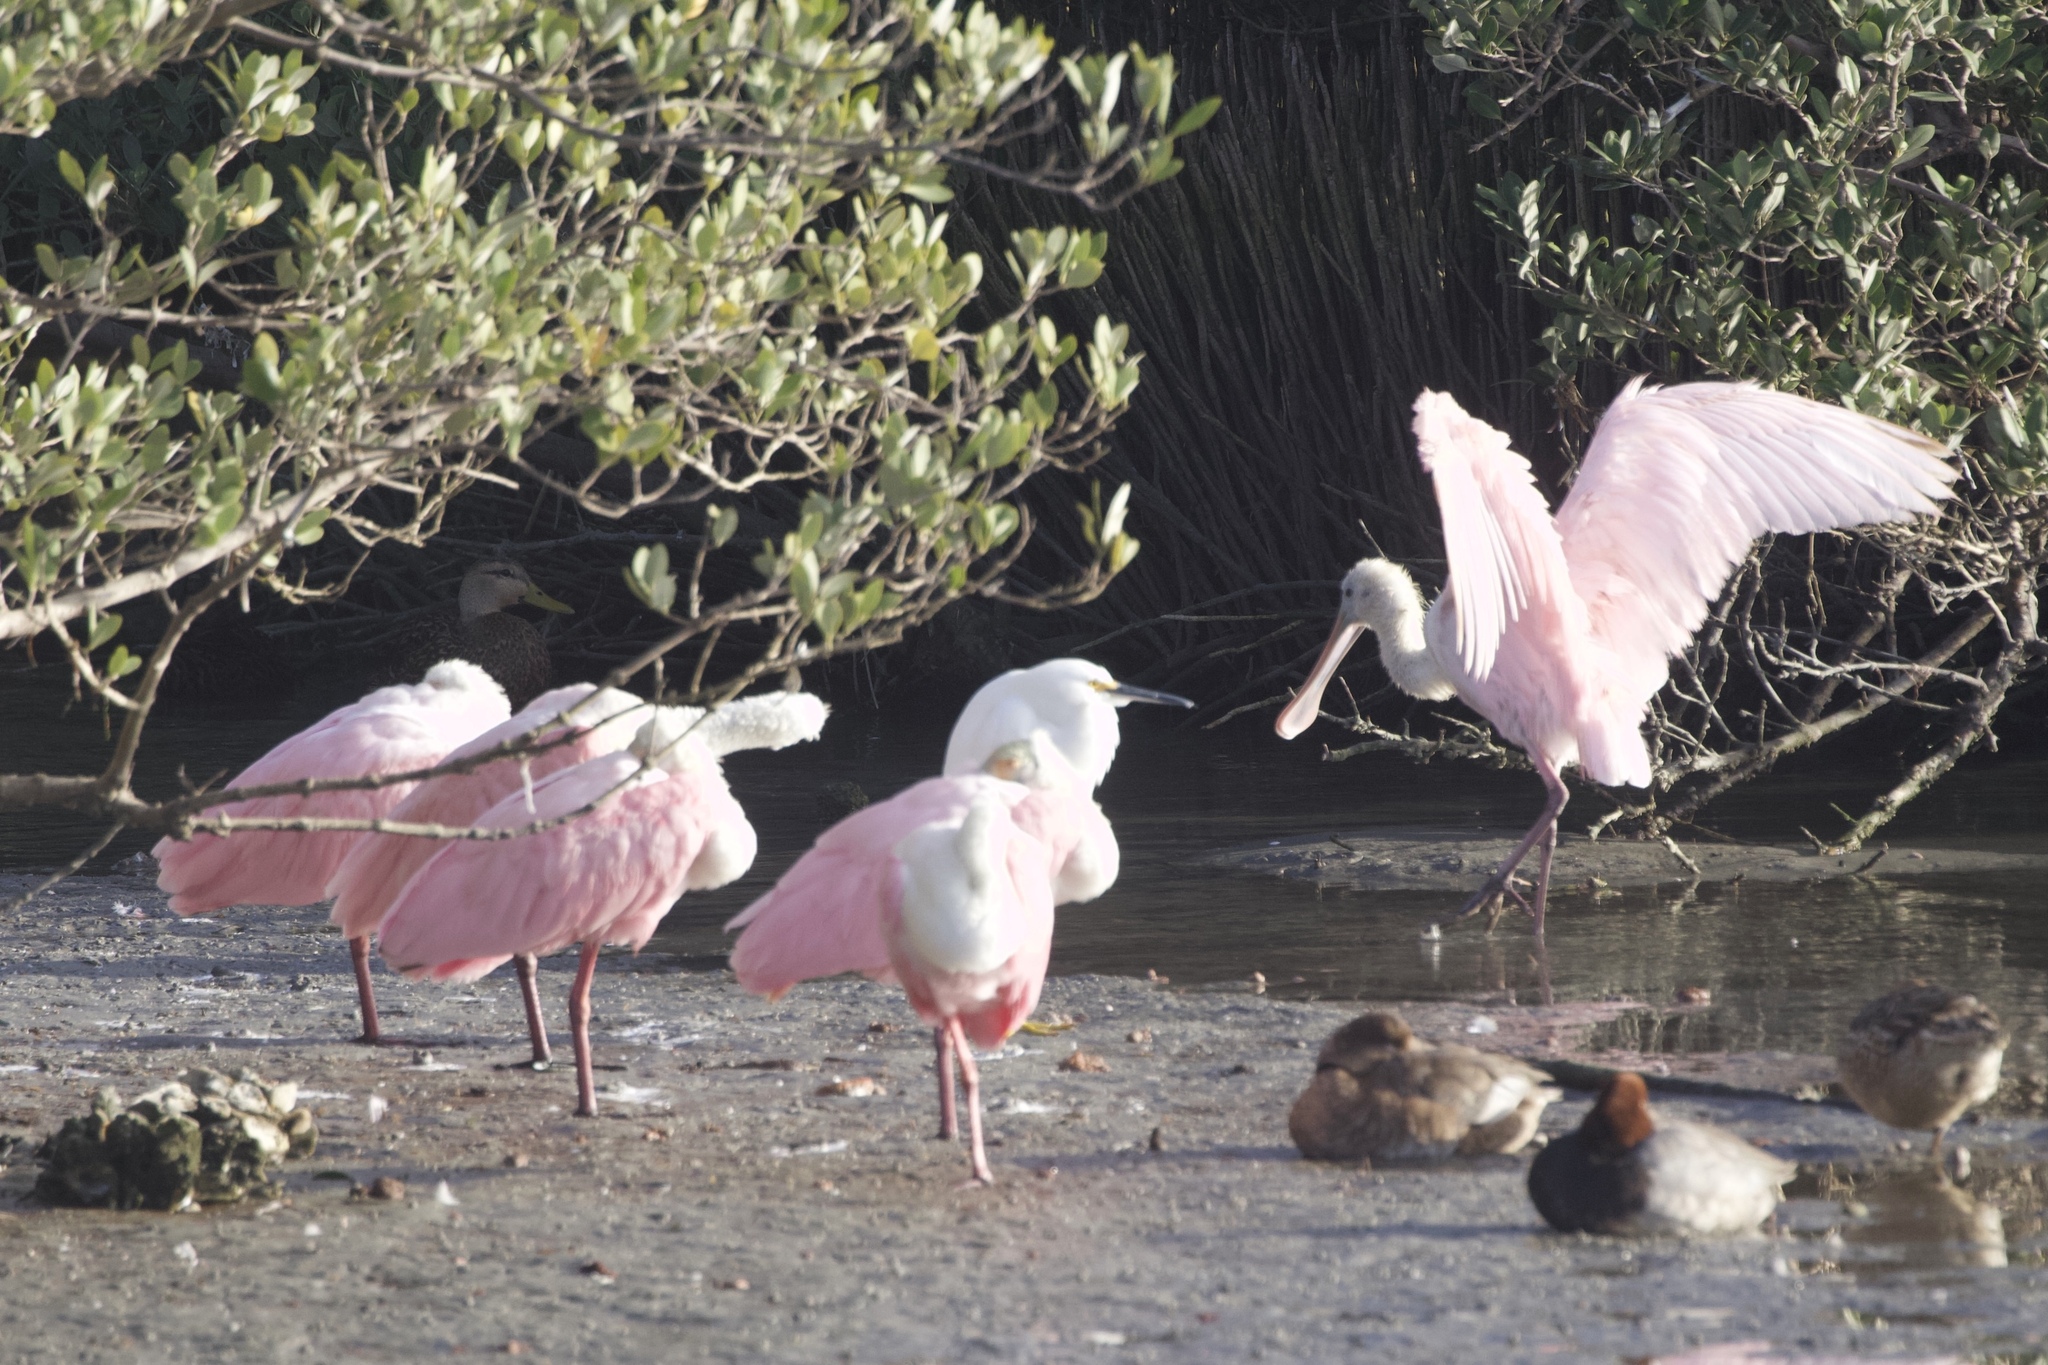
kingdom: Animalia
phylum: Chordata
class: Aves
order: Pelecaniformes
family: Threskiornithidae
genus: Platalea
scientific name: Platalea ajaja
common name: Roseate spoonbill
